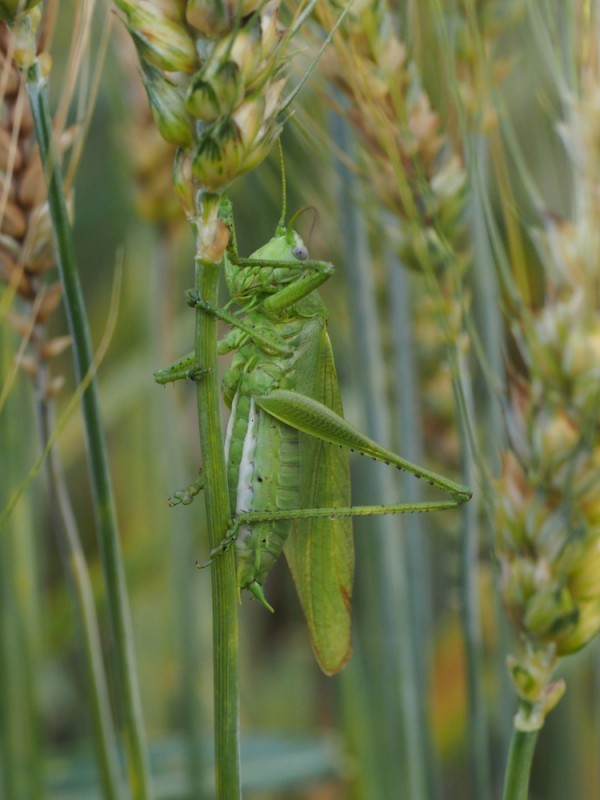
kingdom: Animalia
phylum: Arthropoda
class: Insecta
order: Orthoptera
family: Tettigoniidae
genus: Tettigonia
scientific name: Tettigonia caudata
